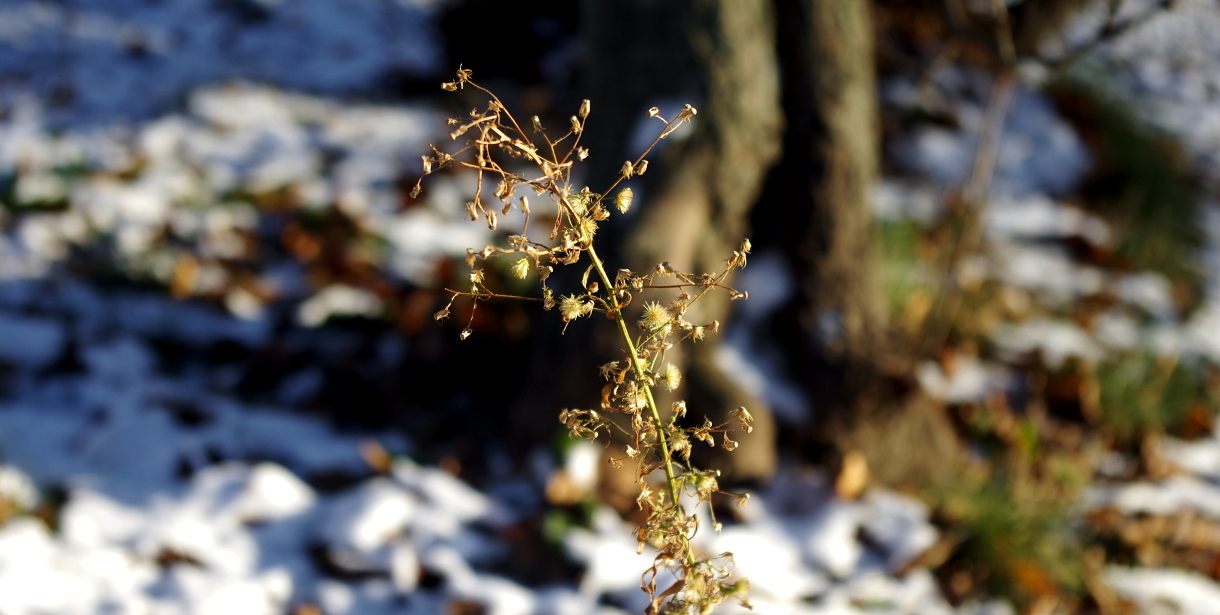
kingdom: Plantae
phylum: Tracheophyta
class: Magnoliopsida
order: Asterales
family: Asteraceae
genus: Erigeron
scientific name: Erigeron canadensis
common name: Canadian fleabane
